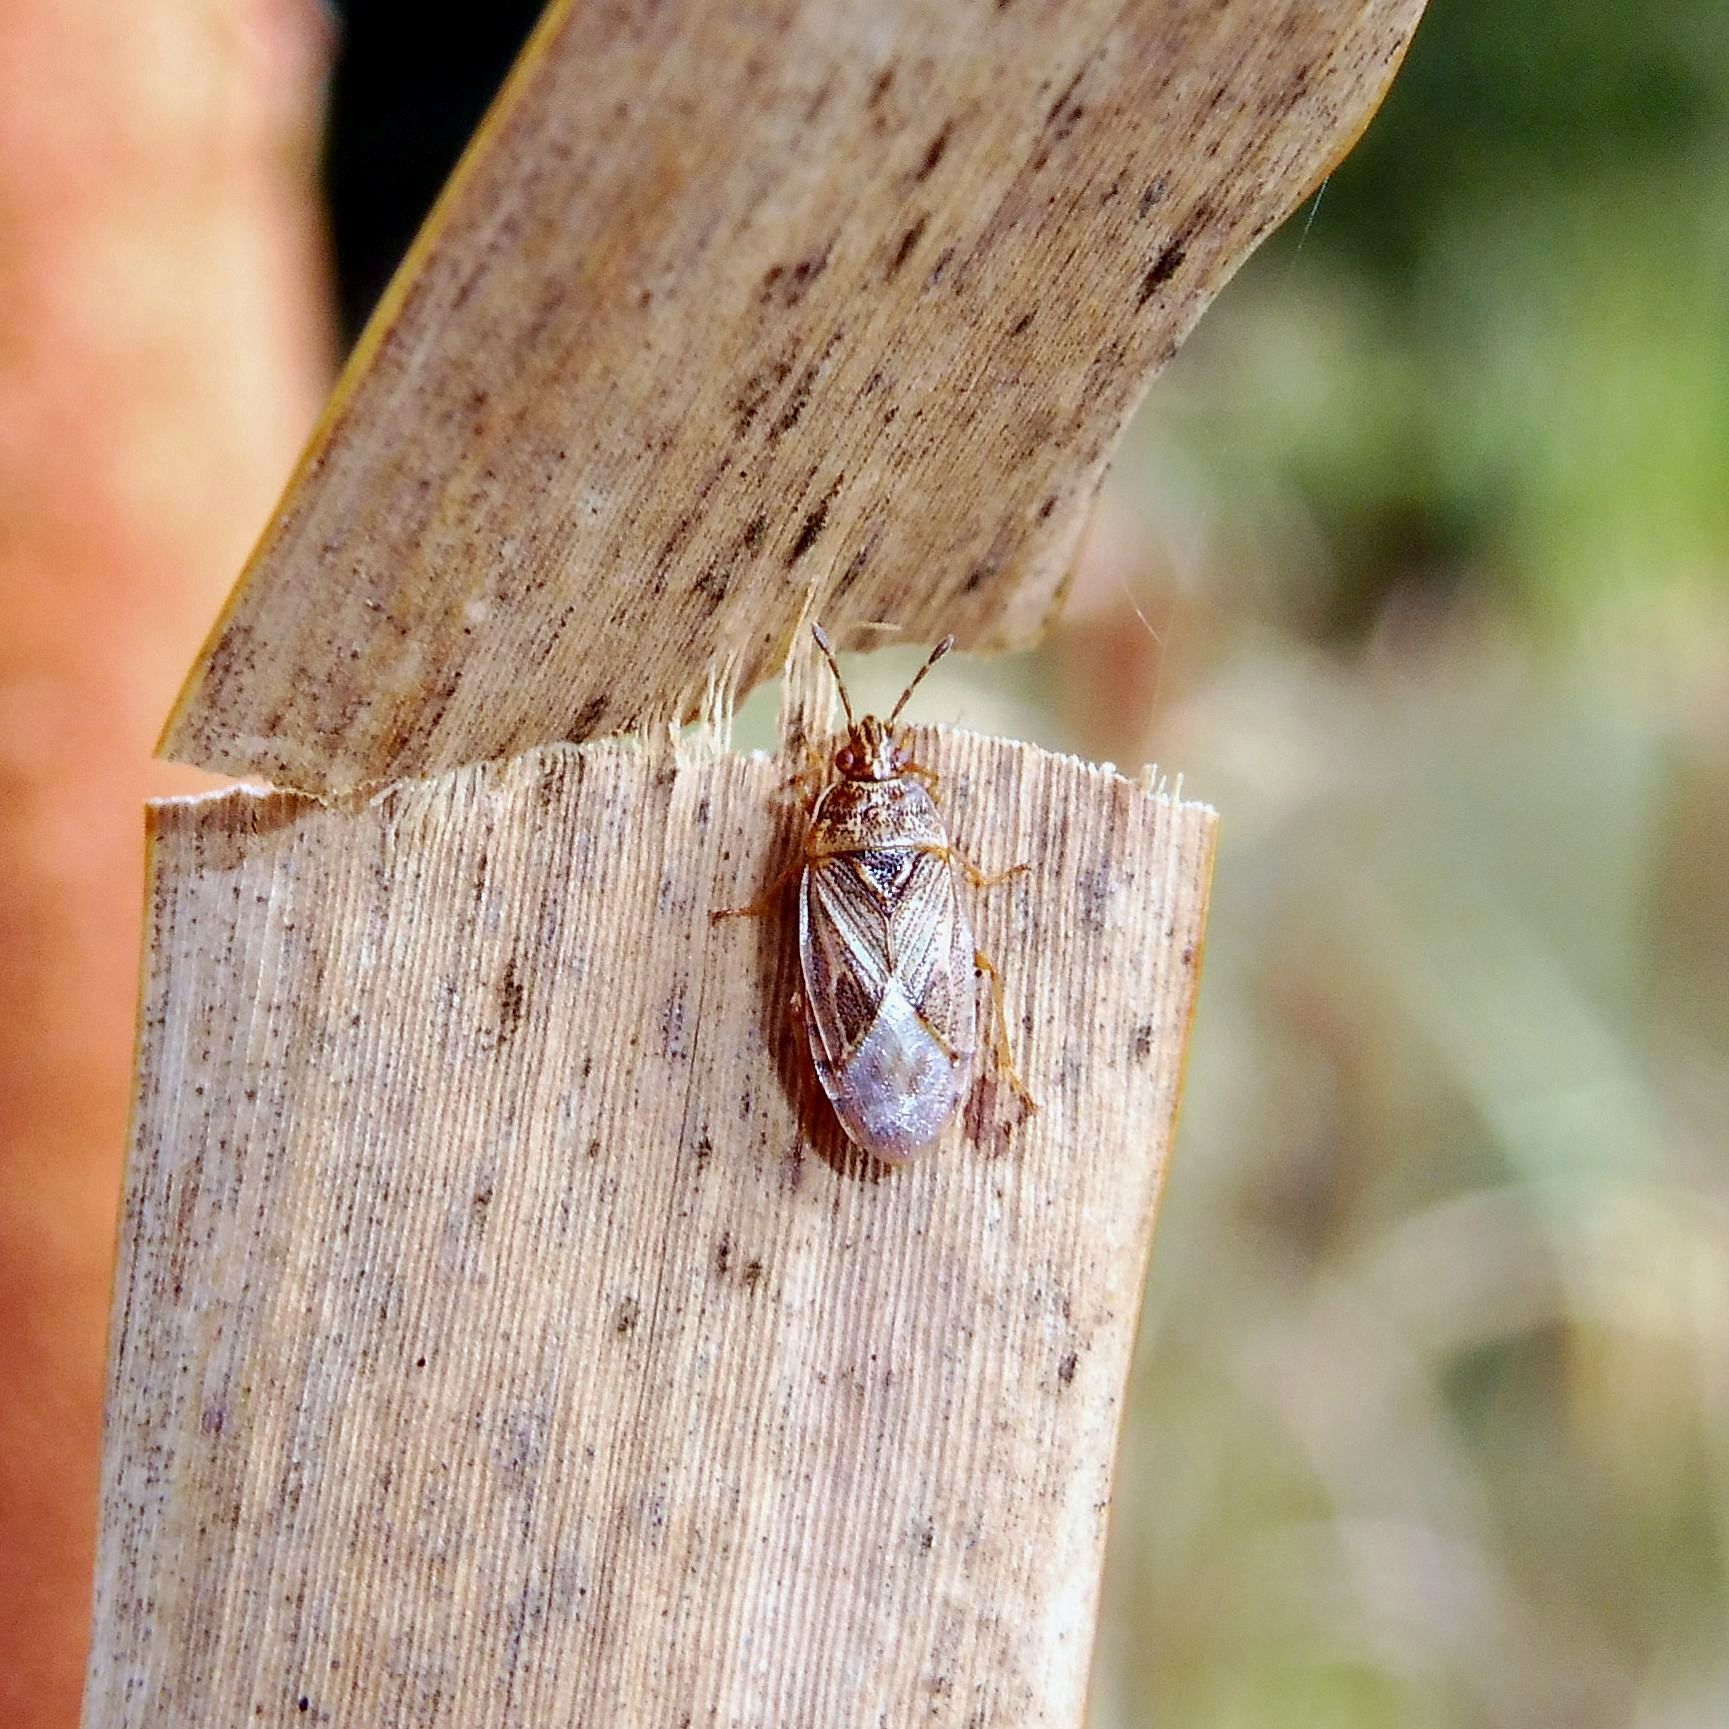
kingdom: Animalia
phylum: Arthropoda
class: Insecta
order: Hemiptera
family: Artheneidae
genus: Chilacis
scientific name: Chilacis typhae
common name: Cattail bug
